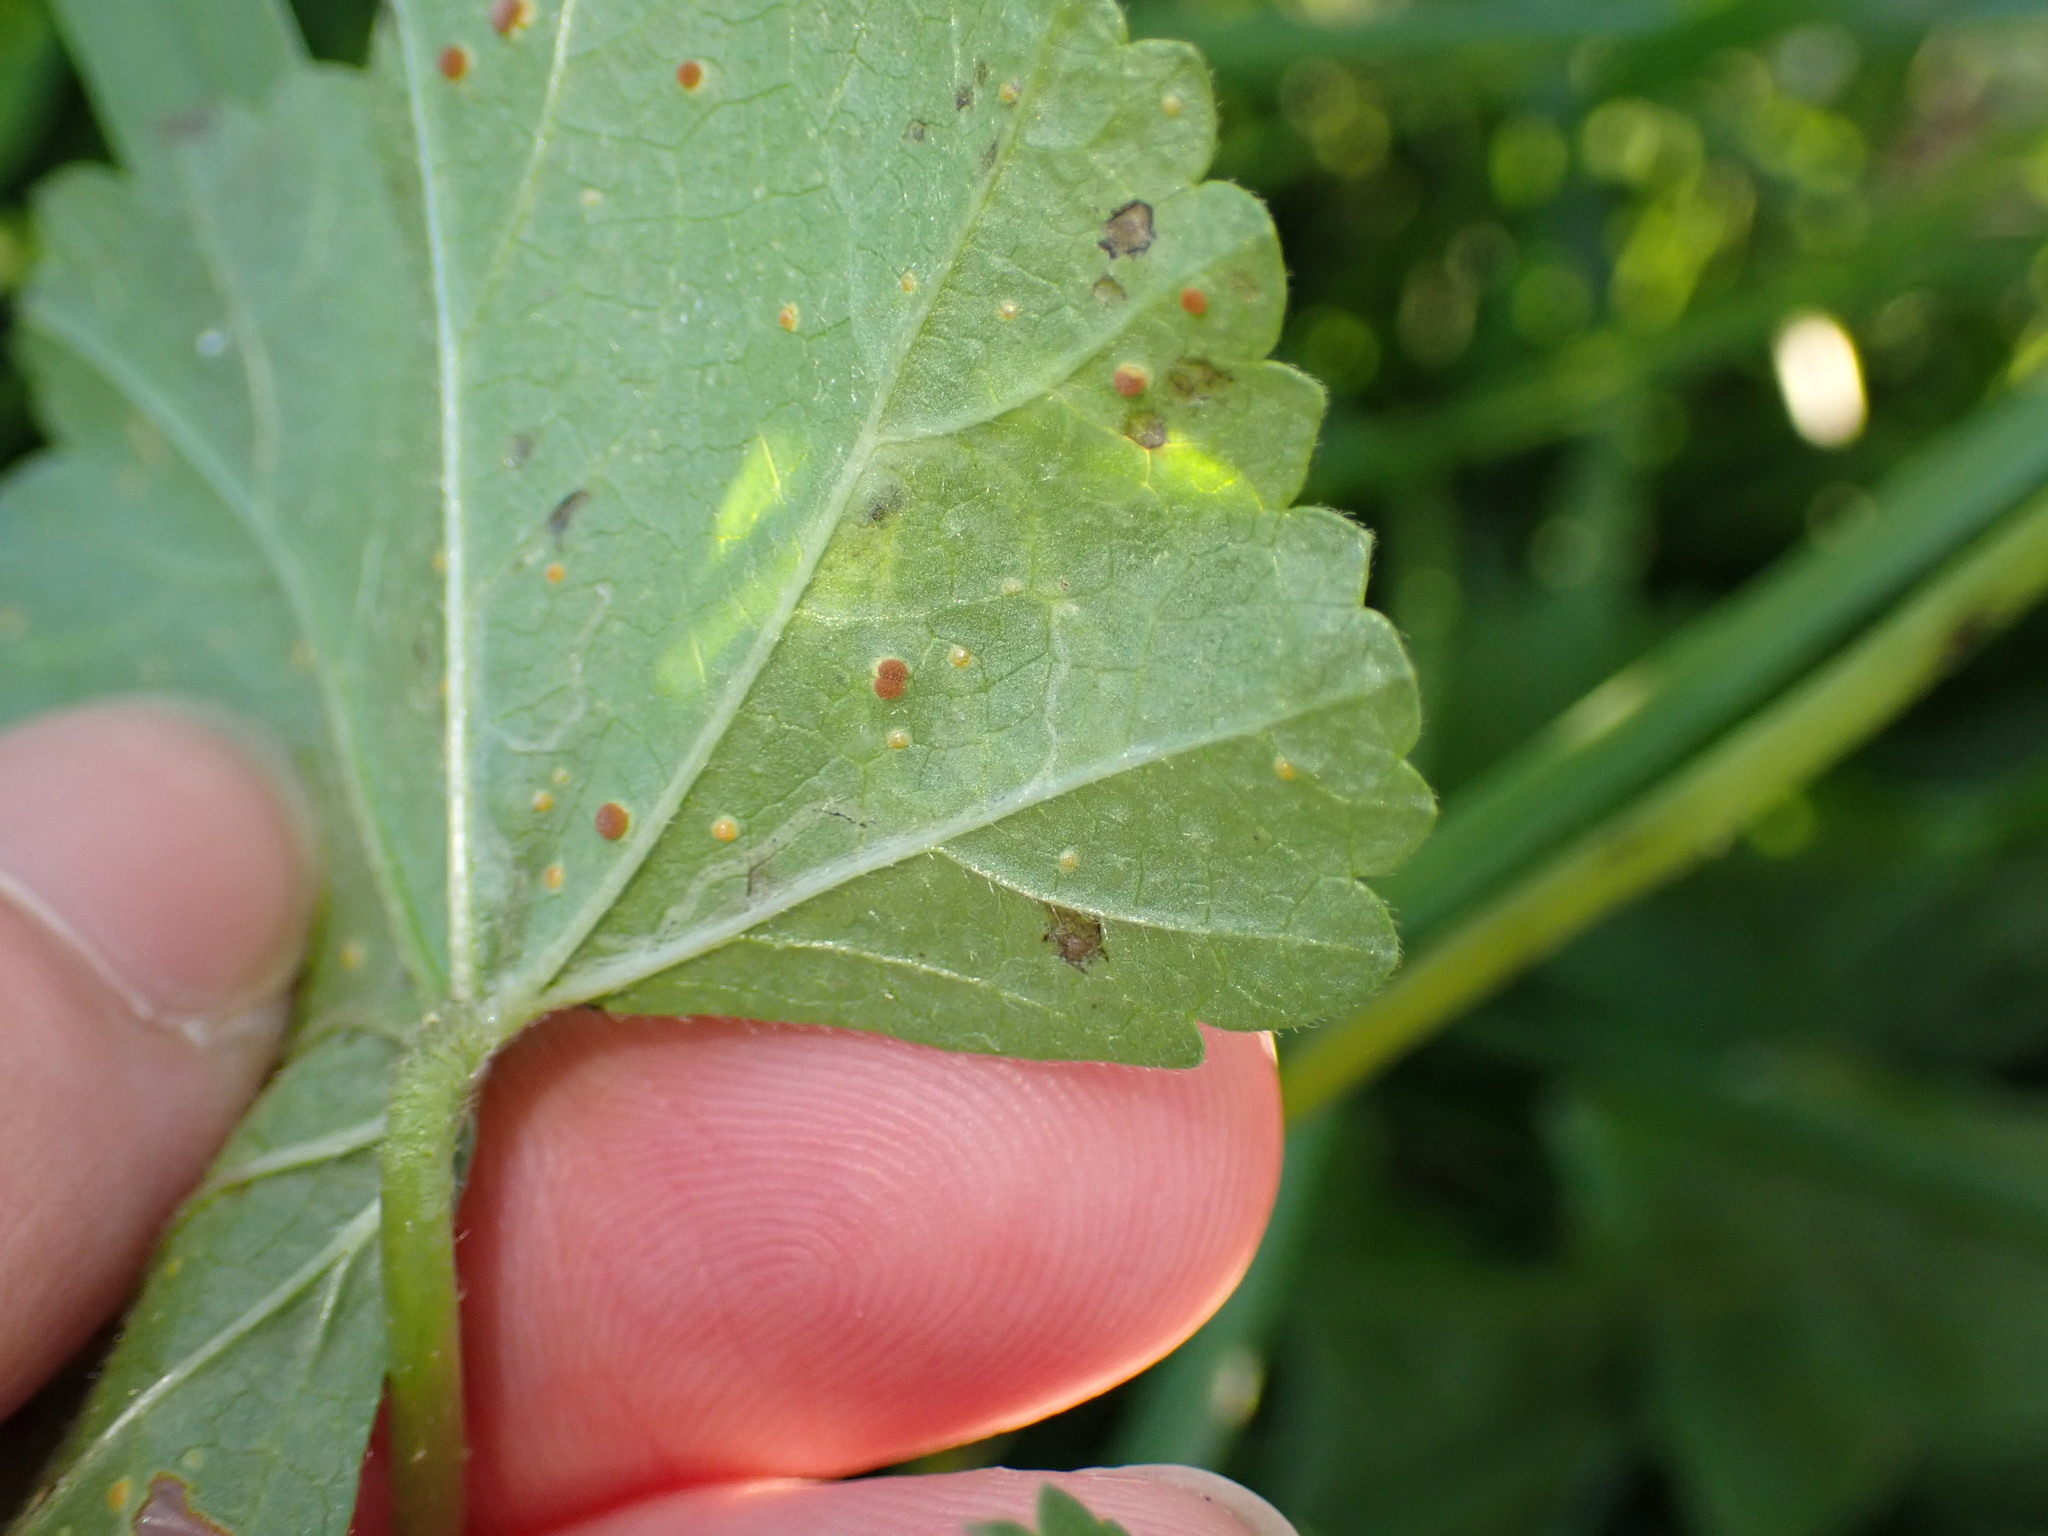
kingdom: Animalia
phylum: Arthropoda
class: Insecta
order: Diptera
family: Agromyzidae
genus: Calycomyza
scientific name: Calycomyza malvae
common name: Mallow leaf miner
